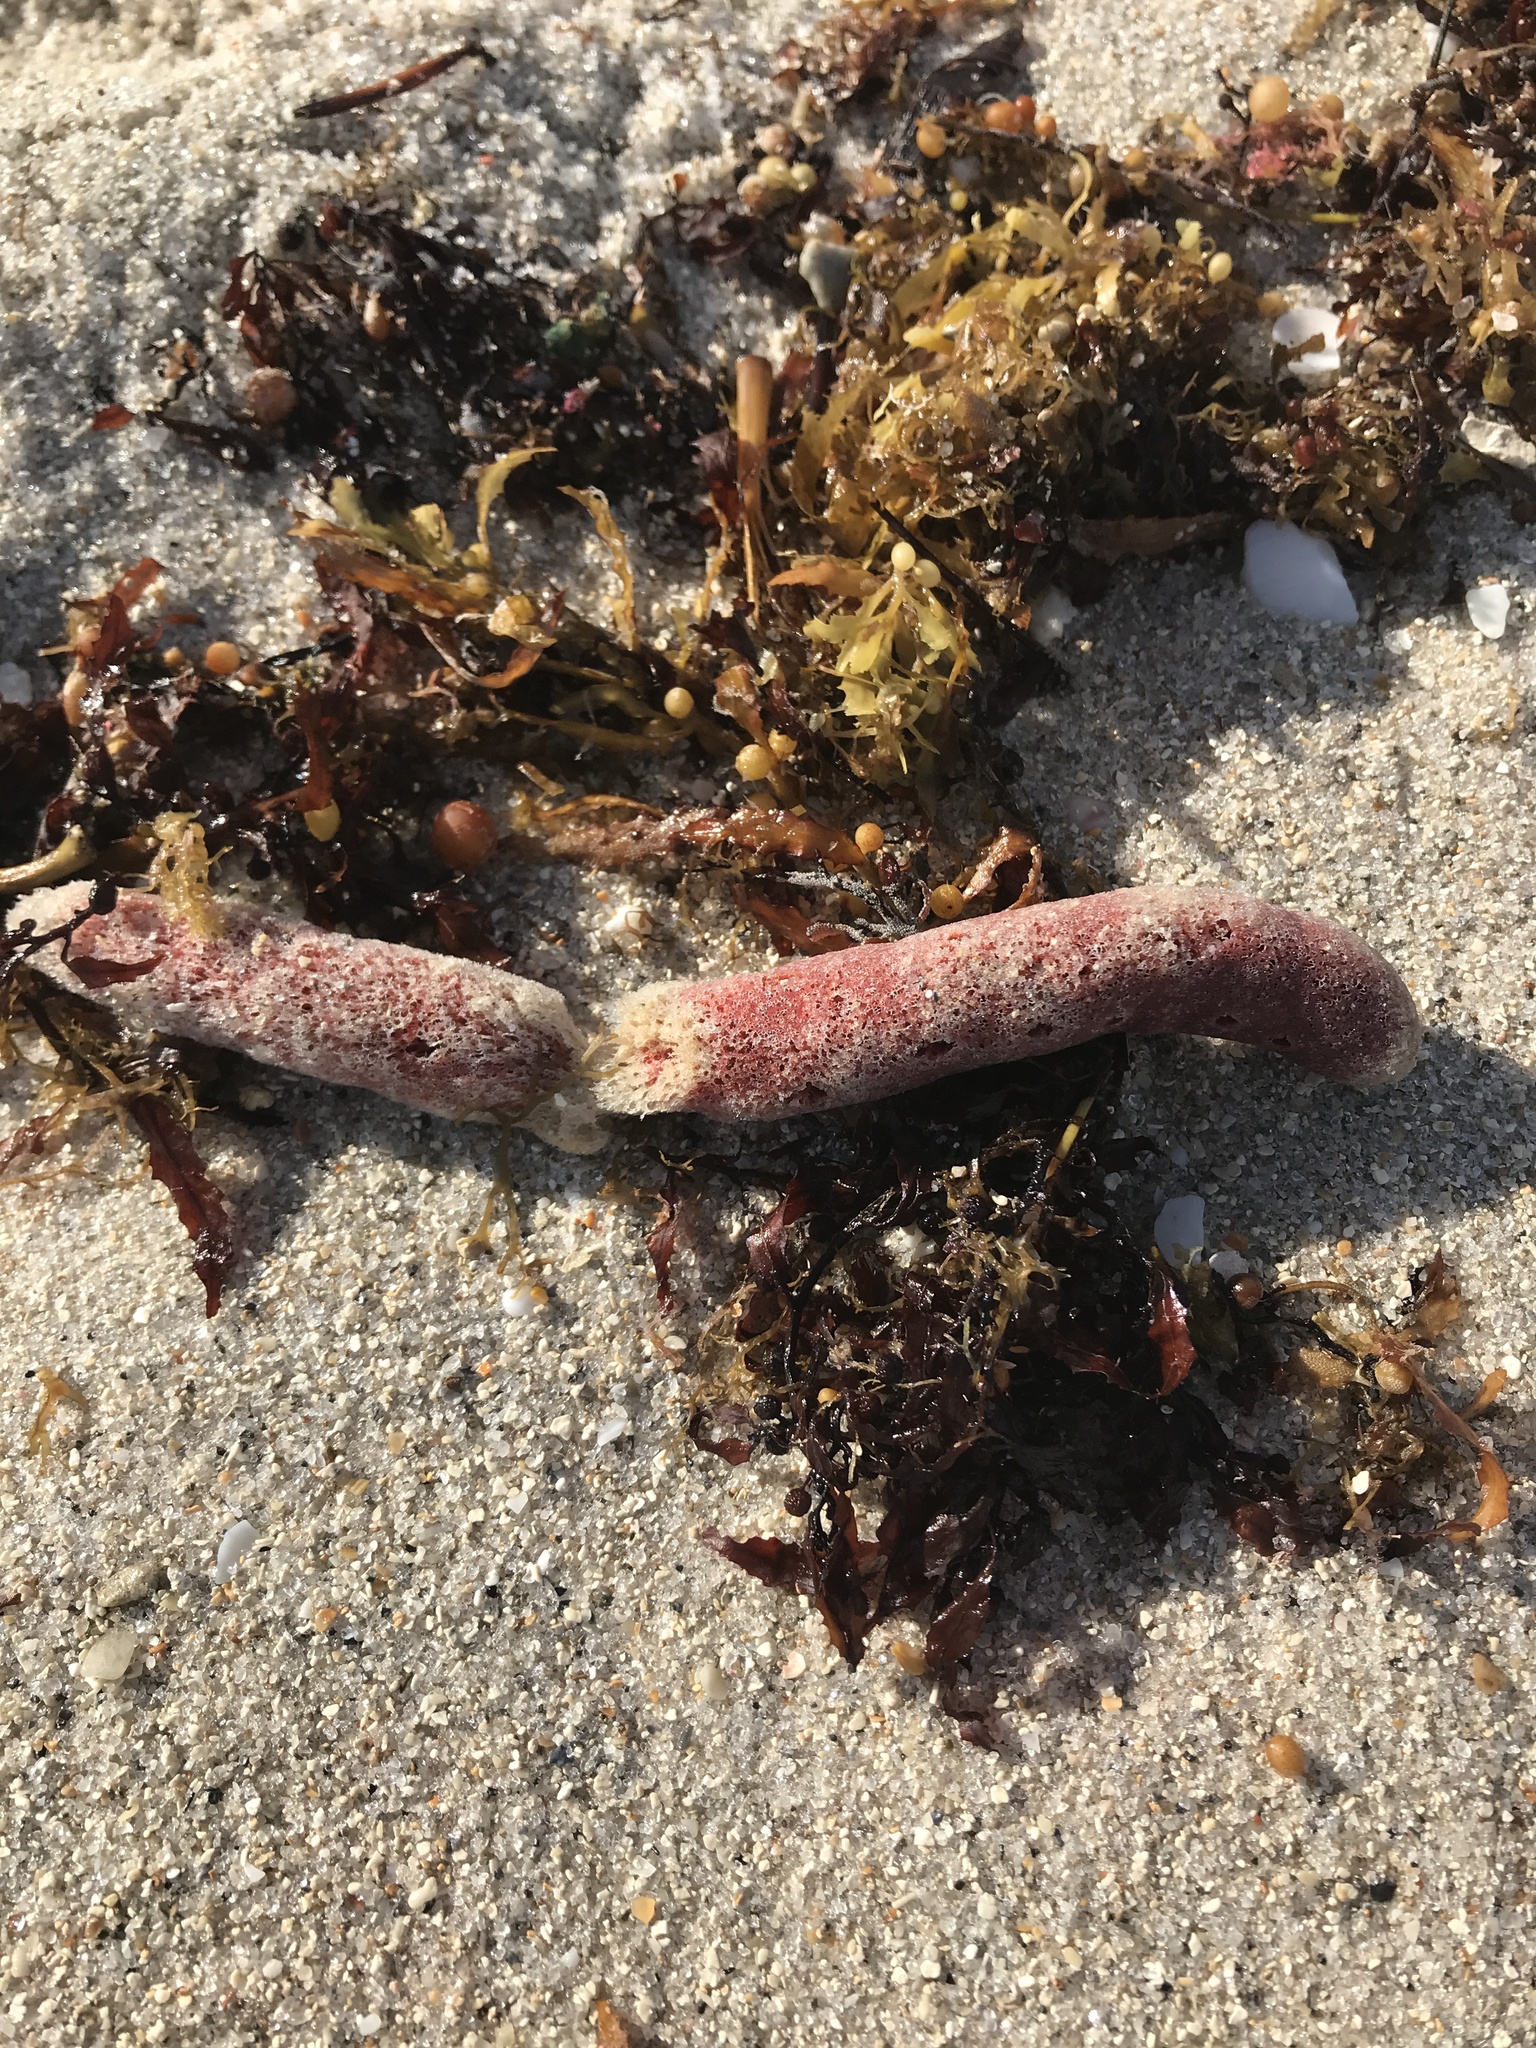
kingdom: Animalia
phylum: Porifera
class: Demospongiae
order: Haplosclerida
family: Niphatidae
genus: Amphimedon
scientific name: Amphimedon compressa
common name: Red sponge
